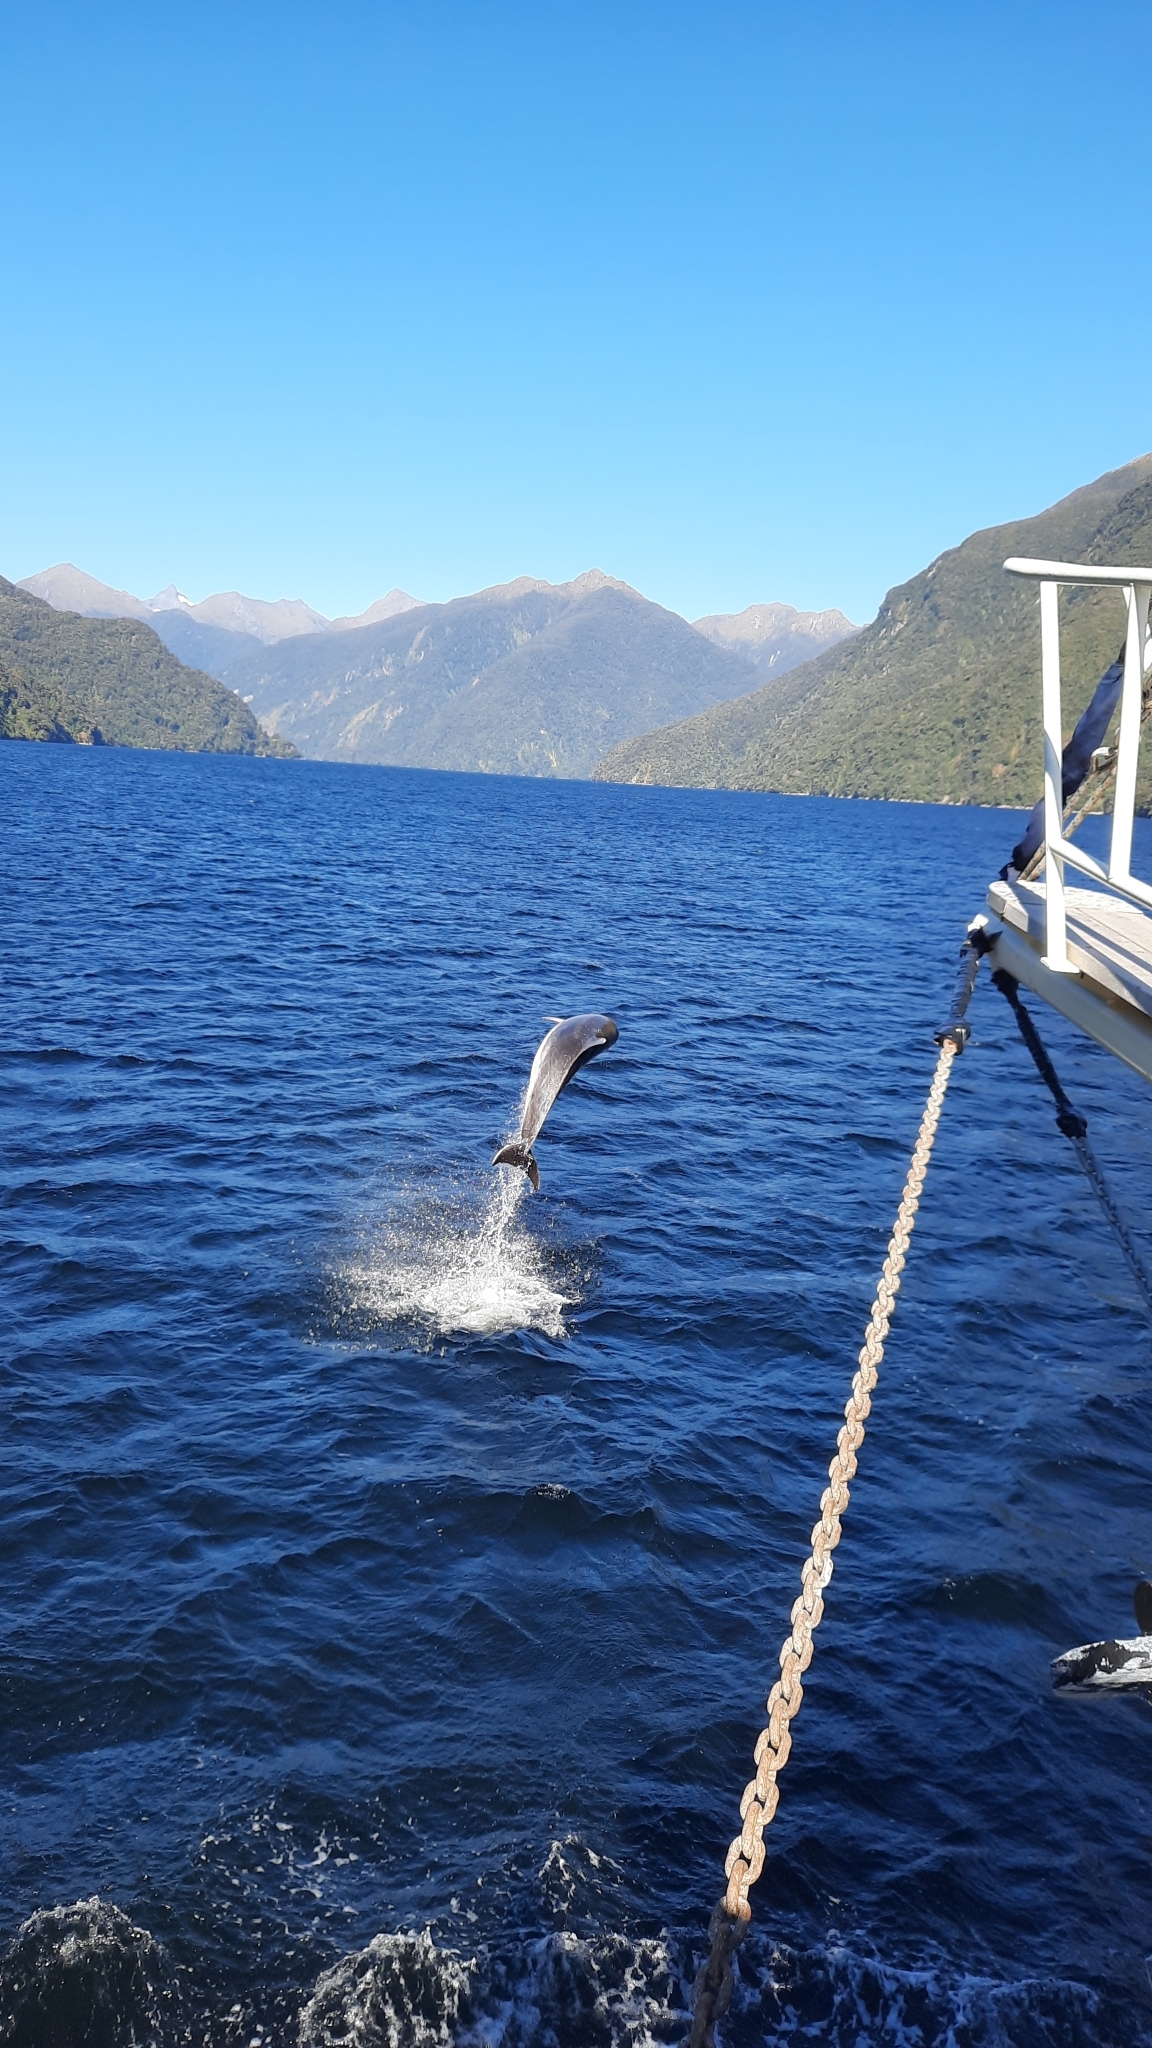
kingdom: Animalia
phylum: Chordata
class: Mammalia
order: Cetacea
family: Delphinidae
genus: Tursiops
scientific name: Tursiops truncatus
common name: Bottlenose dolphin
